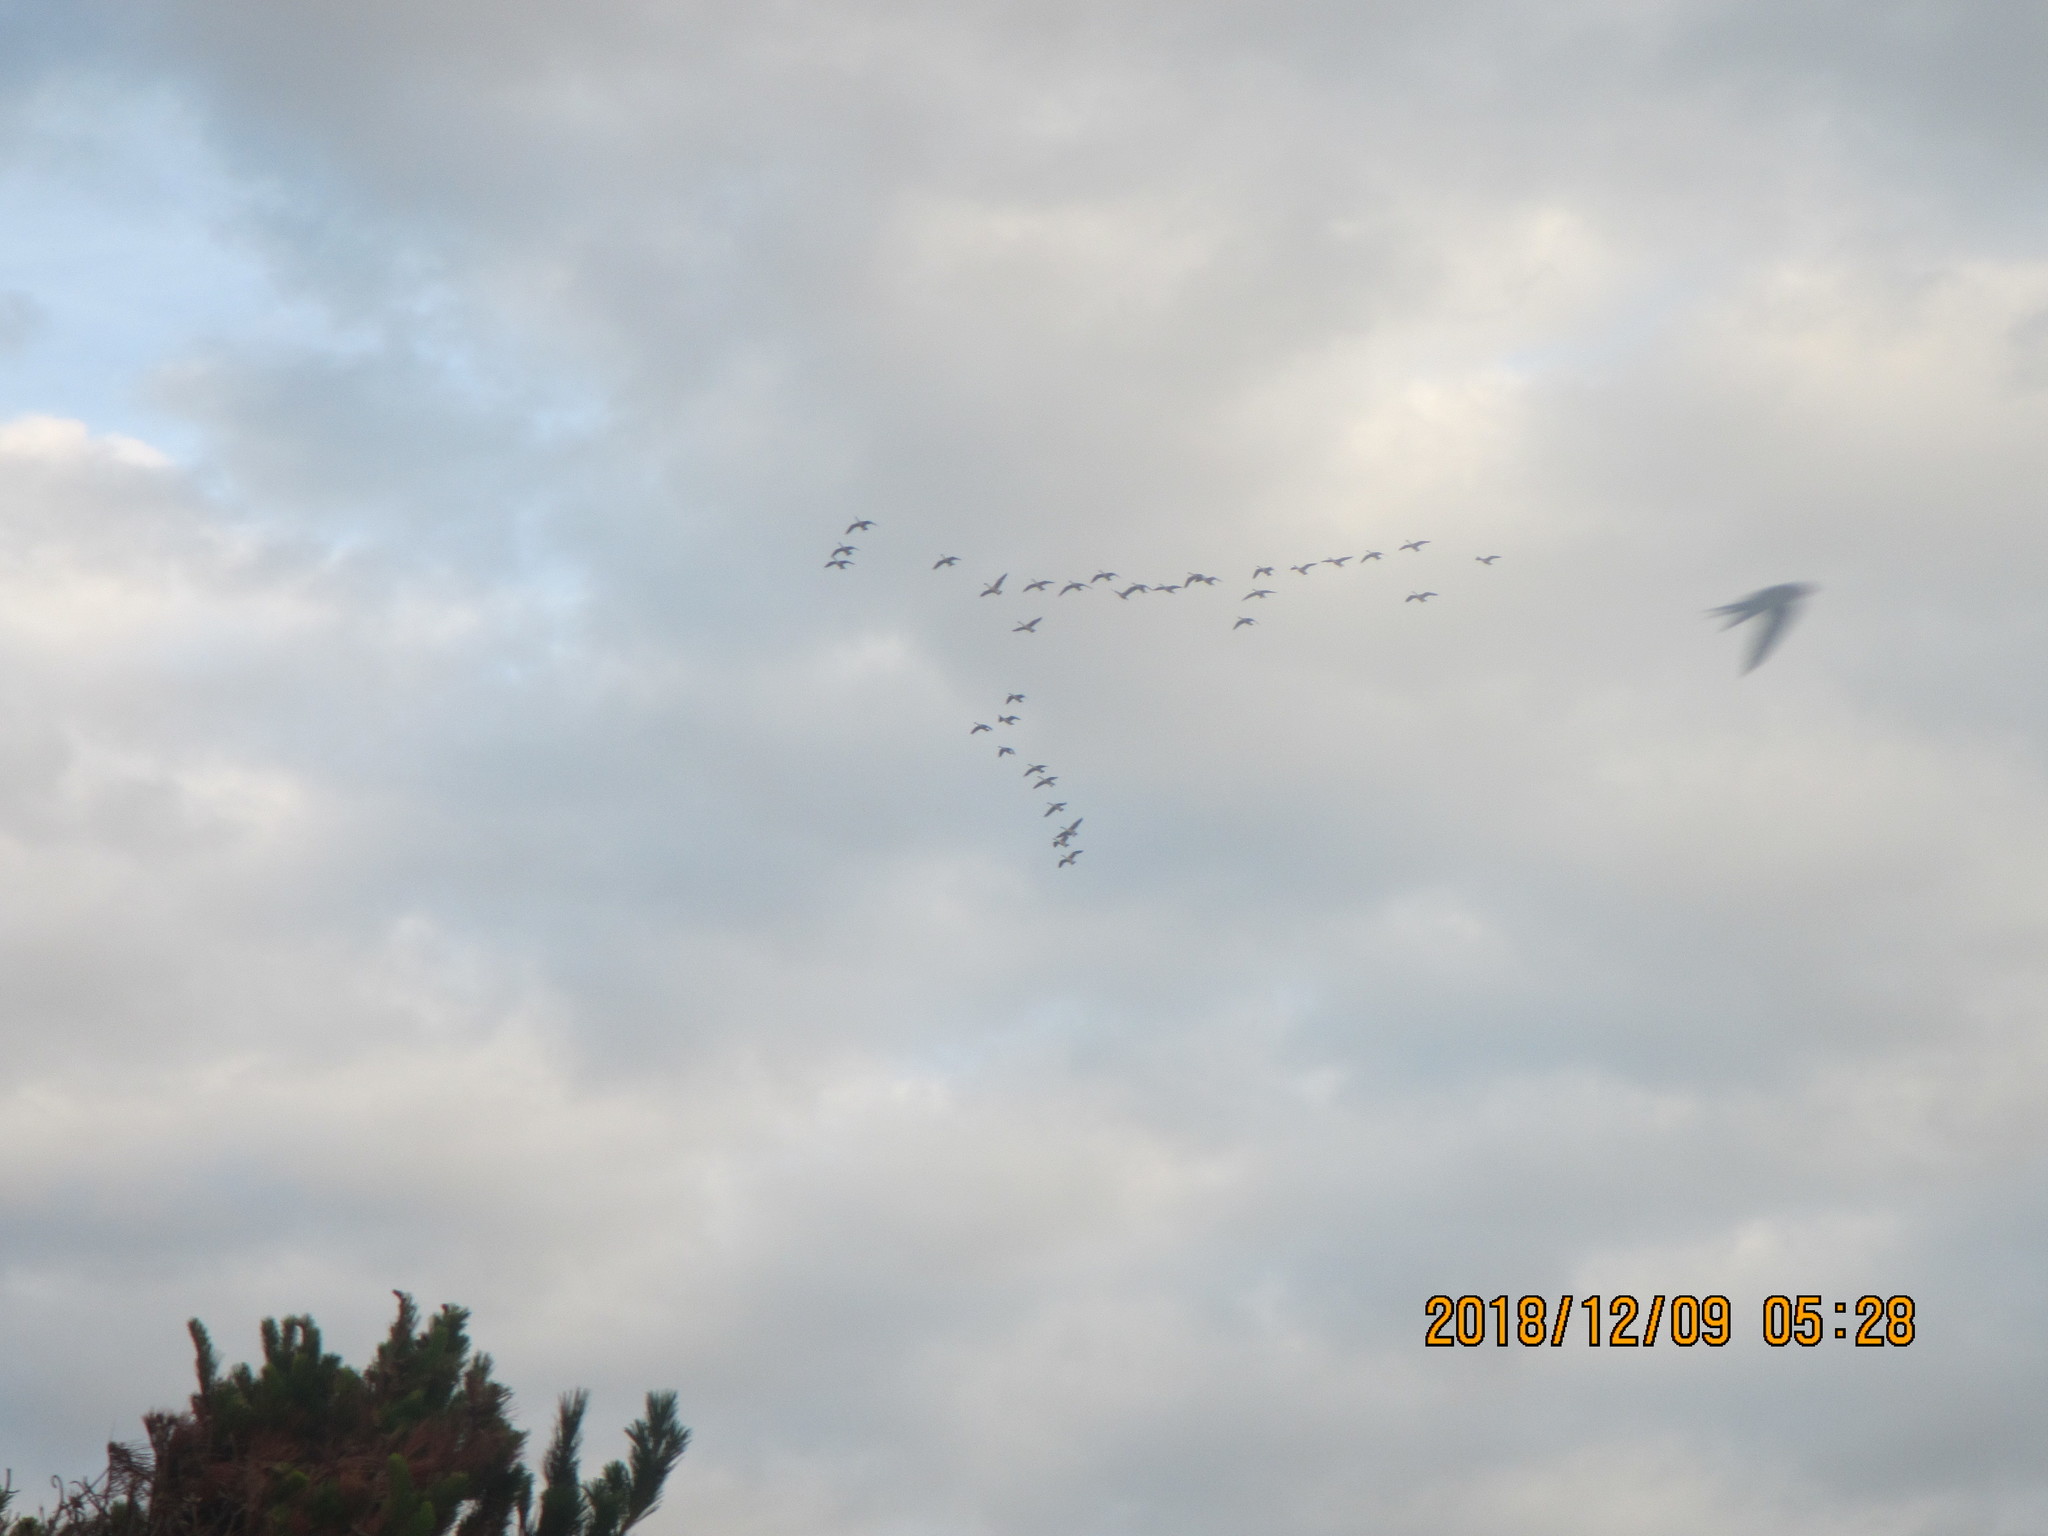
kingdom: Animalia
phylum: Chordata
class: Aves
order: Anseriformes
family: Anatidae
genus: Branta
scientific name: Branta canadensis
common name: Canada goose
